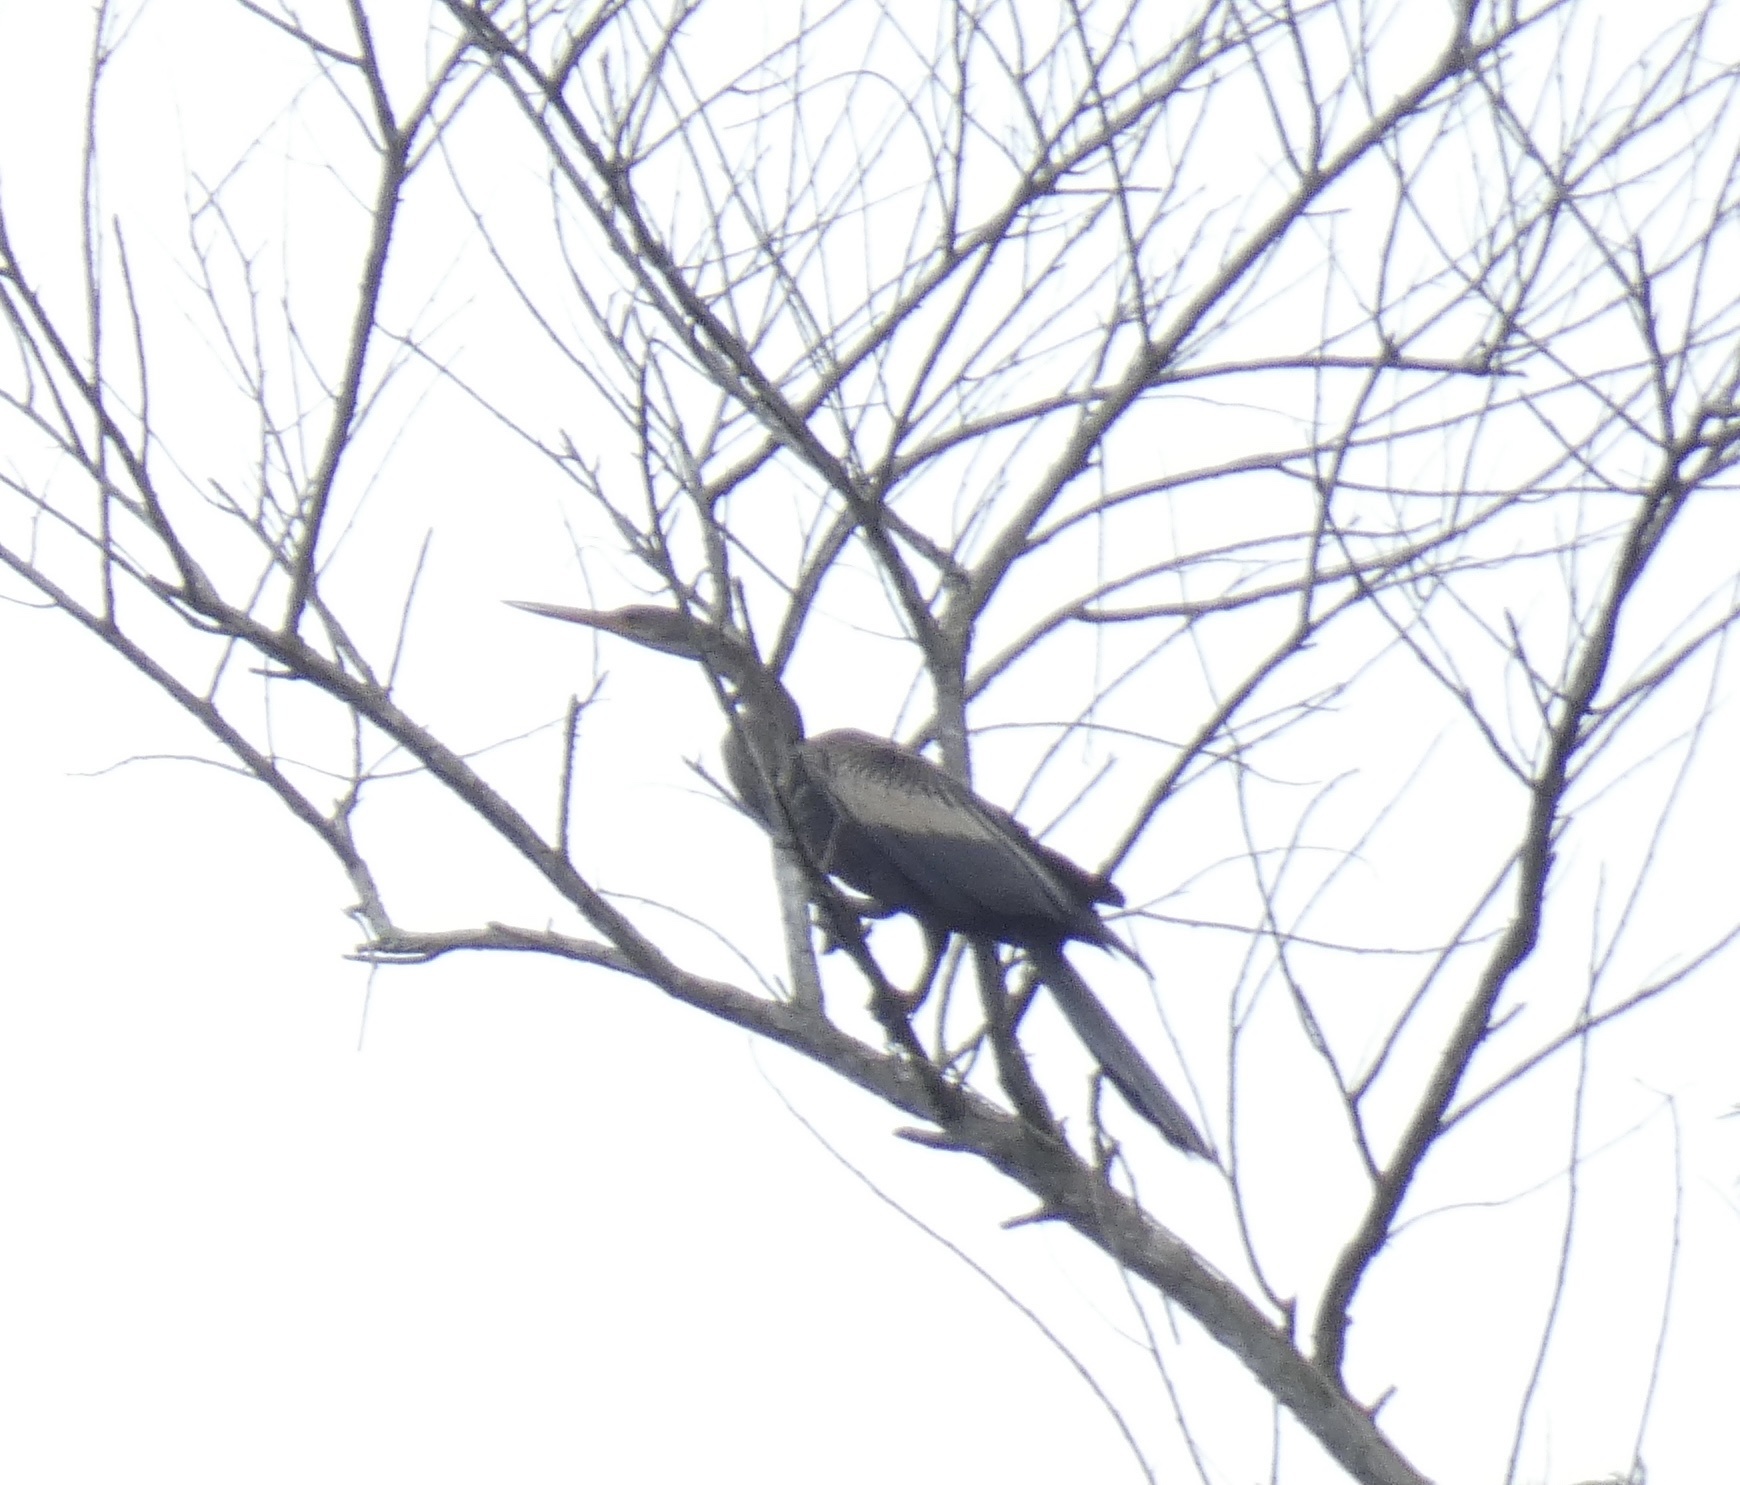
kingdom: Animalia
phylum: Chordata
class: Aves
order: Suliformes
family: Anhingidae
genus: Anhinga
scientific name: Anhinga anhinga
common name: Anhinga
